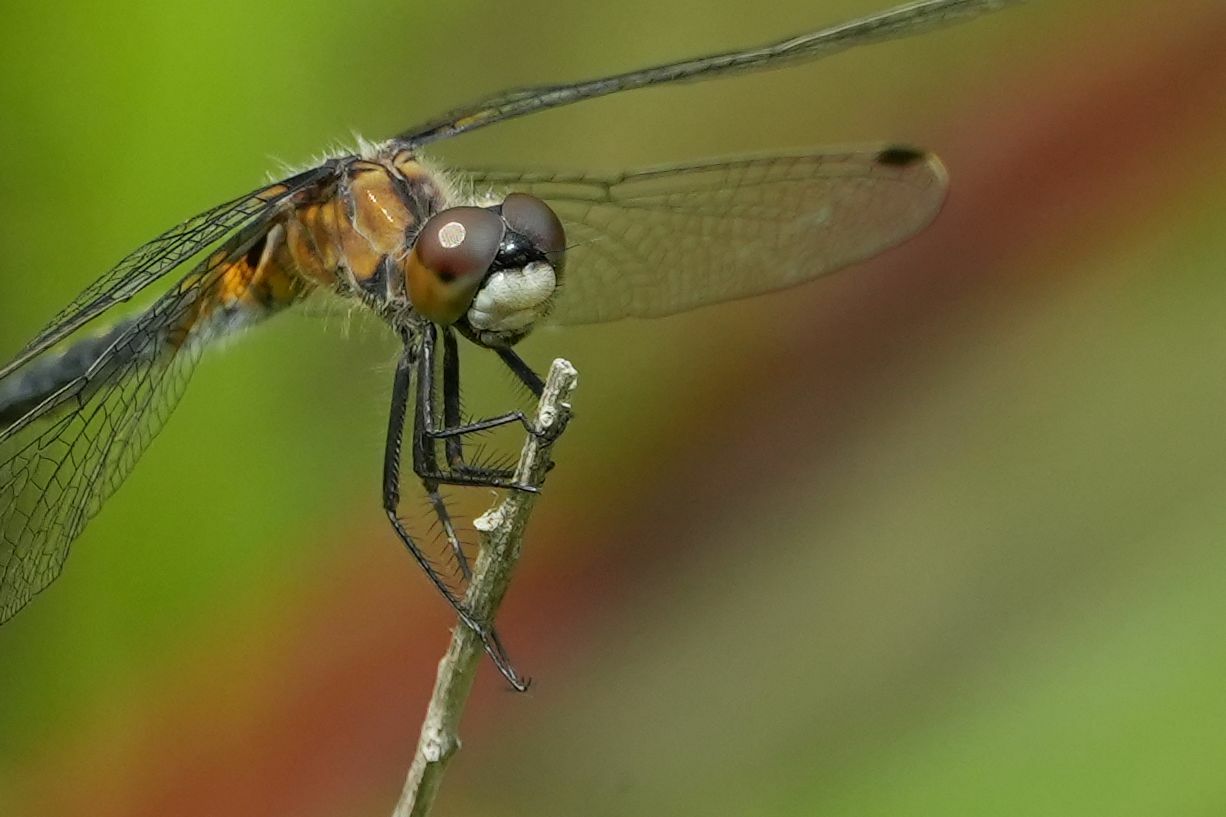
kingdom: Animalia
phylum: Arthropoda
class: Insecta
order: Odonata
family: Libellulidae
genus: Leucorrhinia
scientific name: Leucorrhinia frigida
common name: Frosted whiteface
